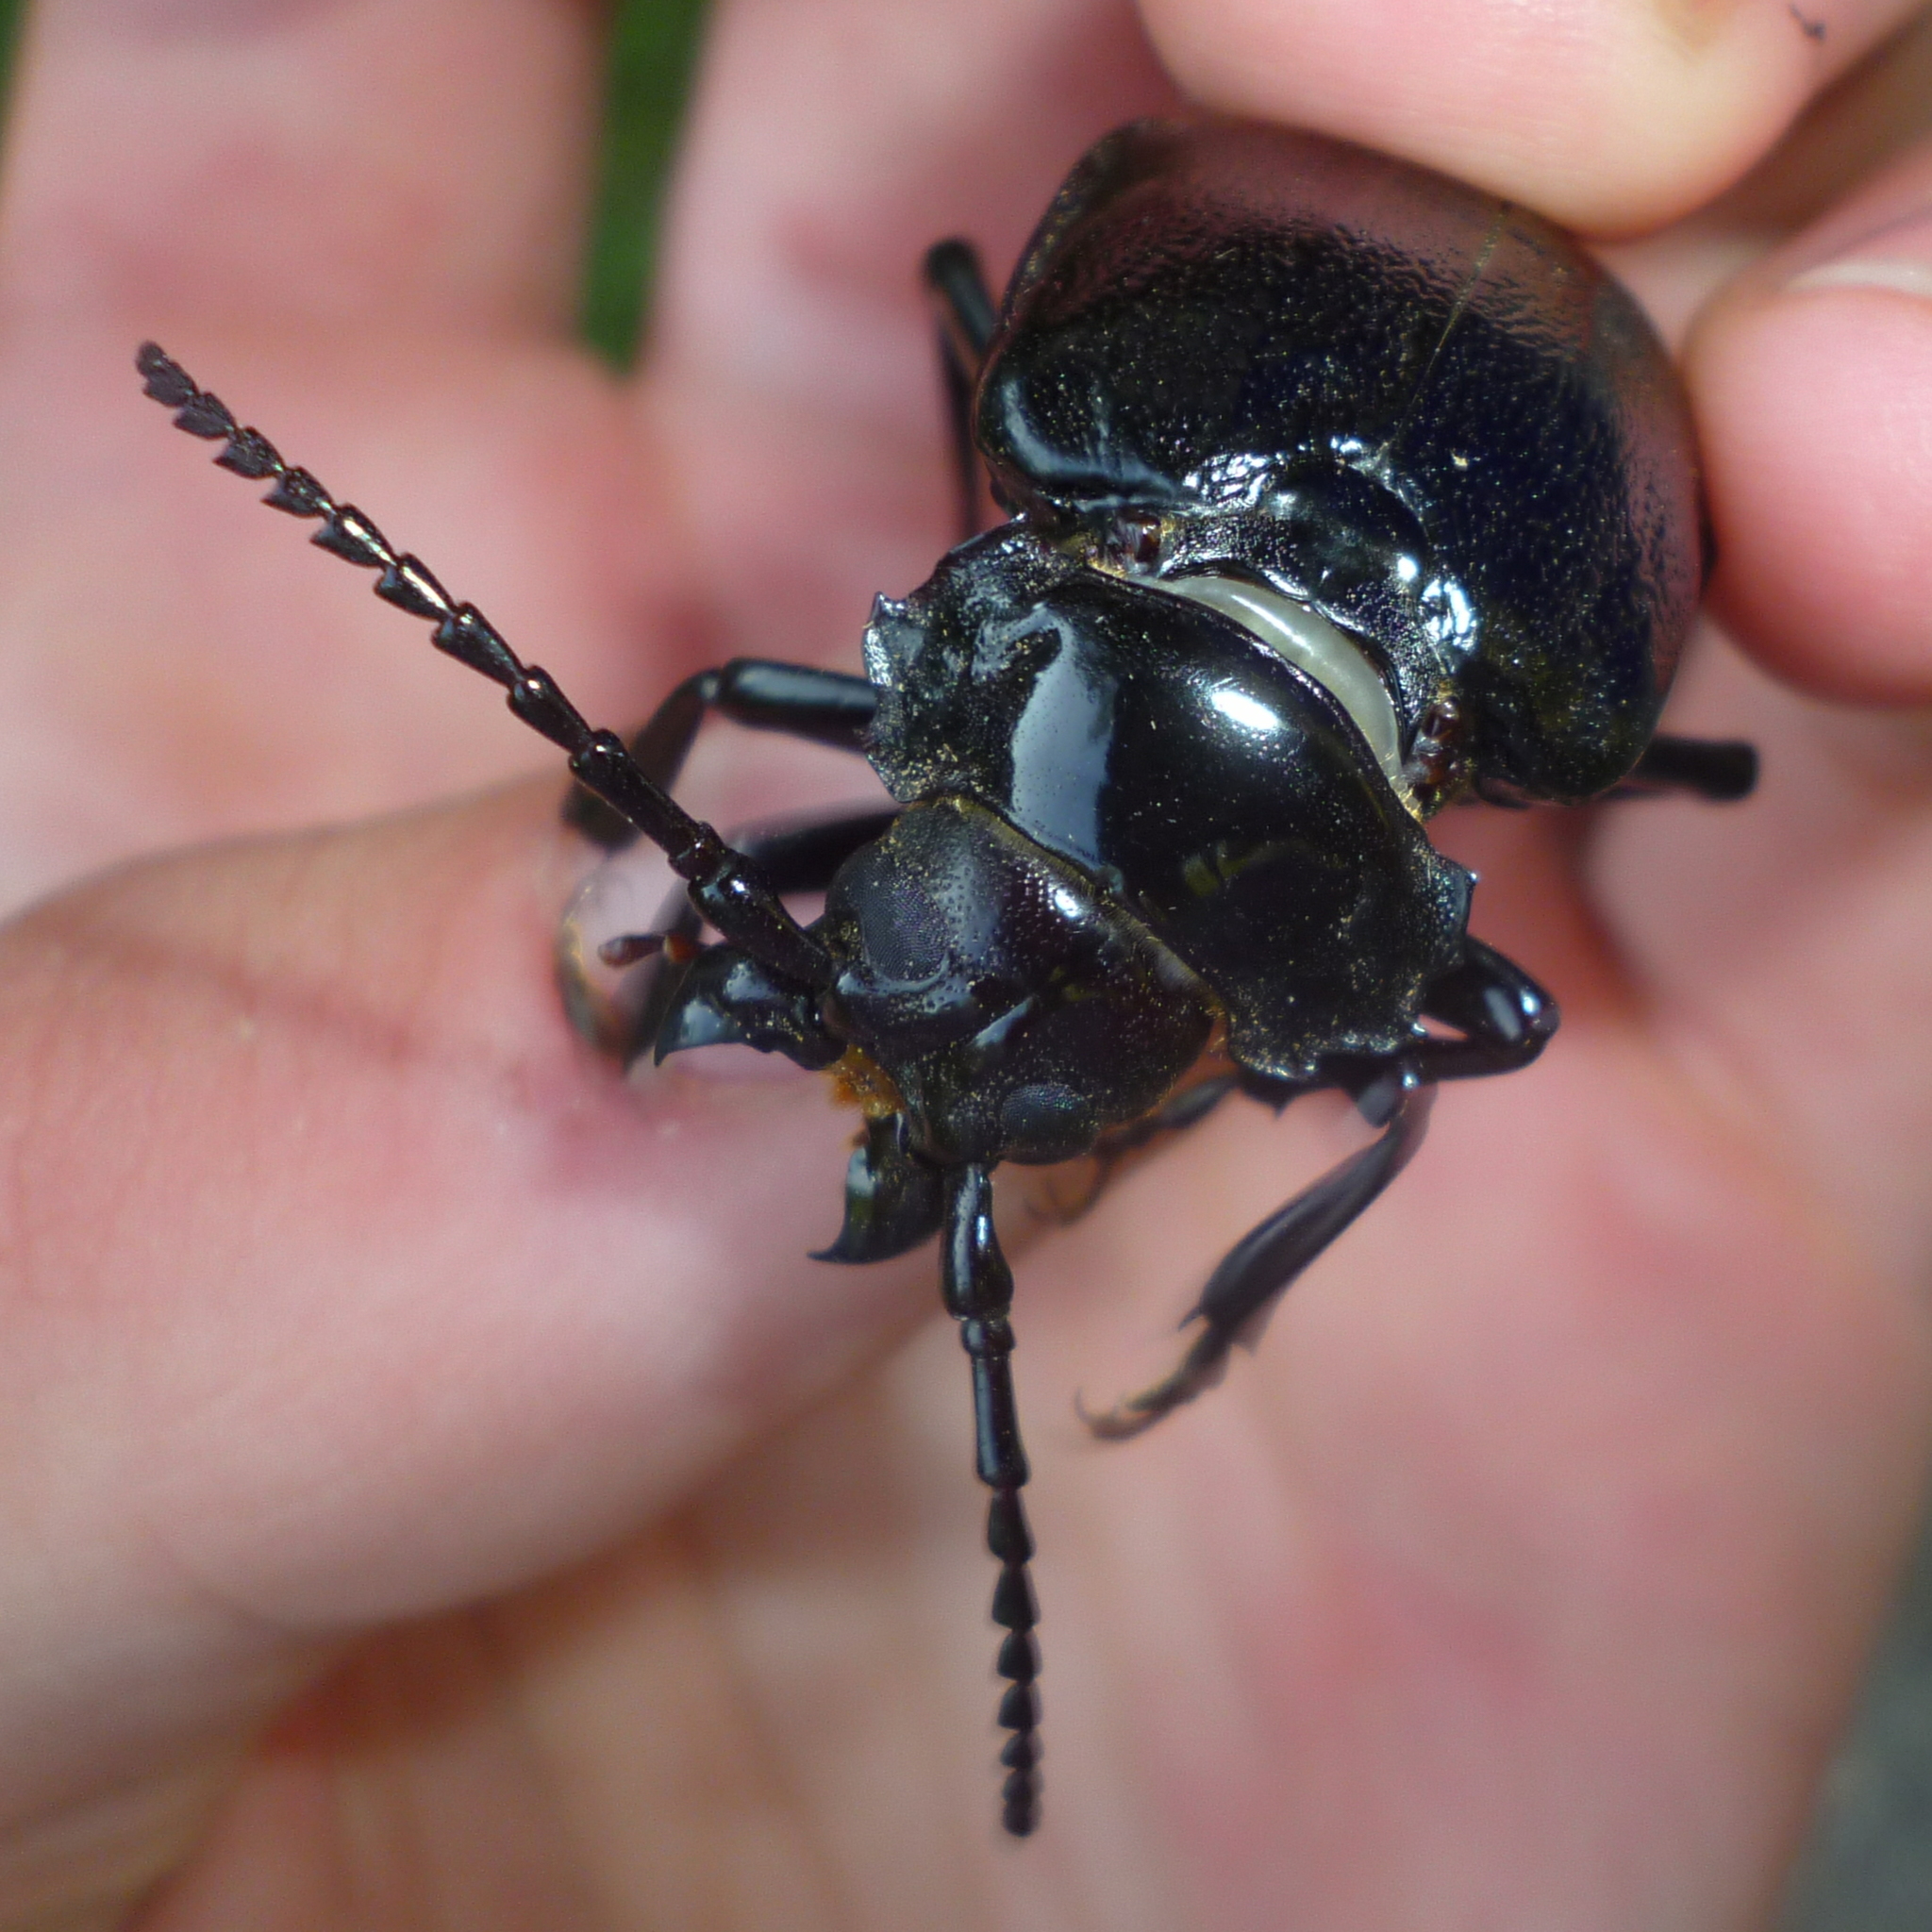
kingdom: Animalia
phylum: Arthropoda
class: Insecta
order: Coleoptera
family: Cerambycidae
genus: Prionus
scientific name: Prionus laticollis
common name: Broad necked prionus
